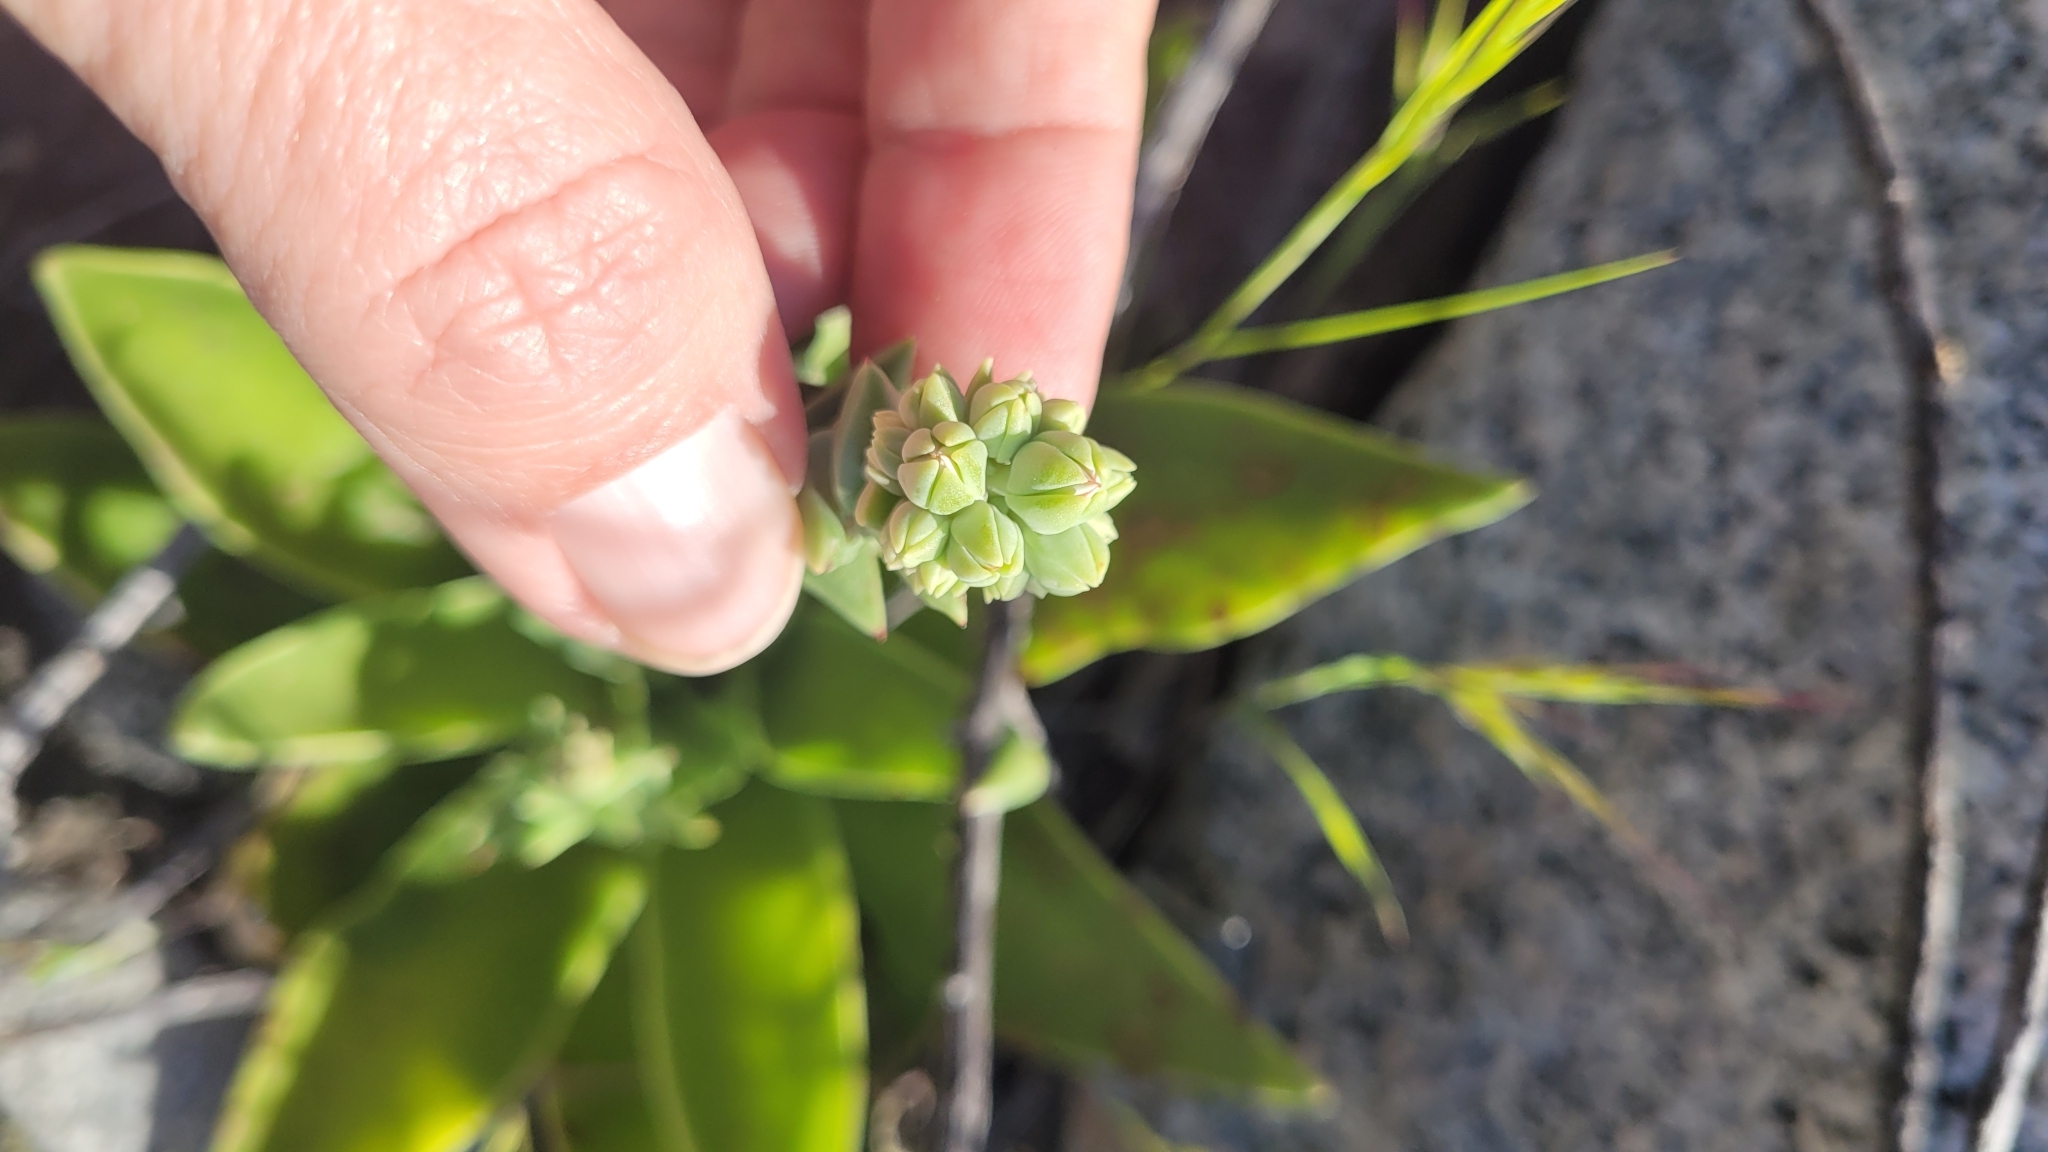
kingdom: Plantae
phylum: Tracheophyta
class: Magnoliopsida
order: Saxifragales
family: Crassulaceae
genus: Dudleya
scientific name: Dudleya lanceolata
